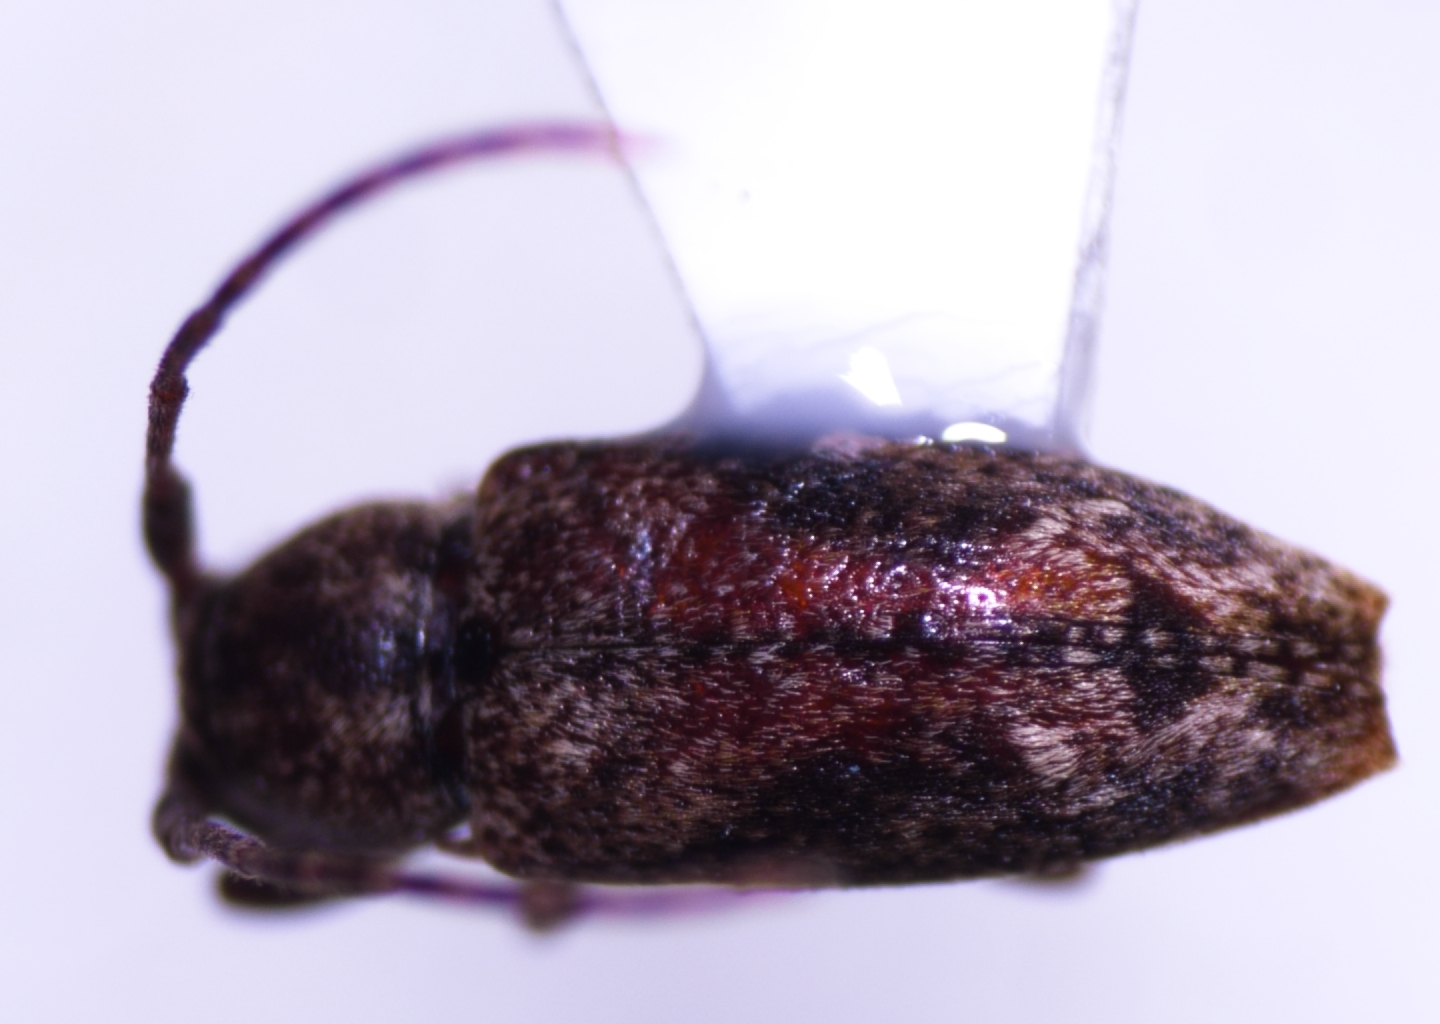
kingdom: Animalia
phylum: Arthropoda
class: Insecta
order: Coleoptera
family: Cerambycidae
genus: Pterolophia
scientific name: Pterolophia lateripicta
